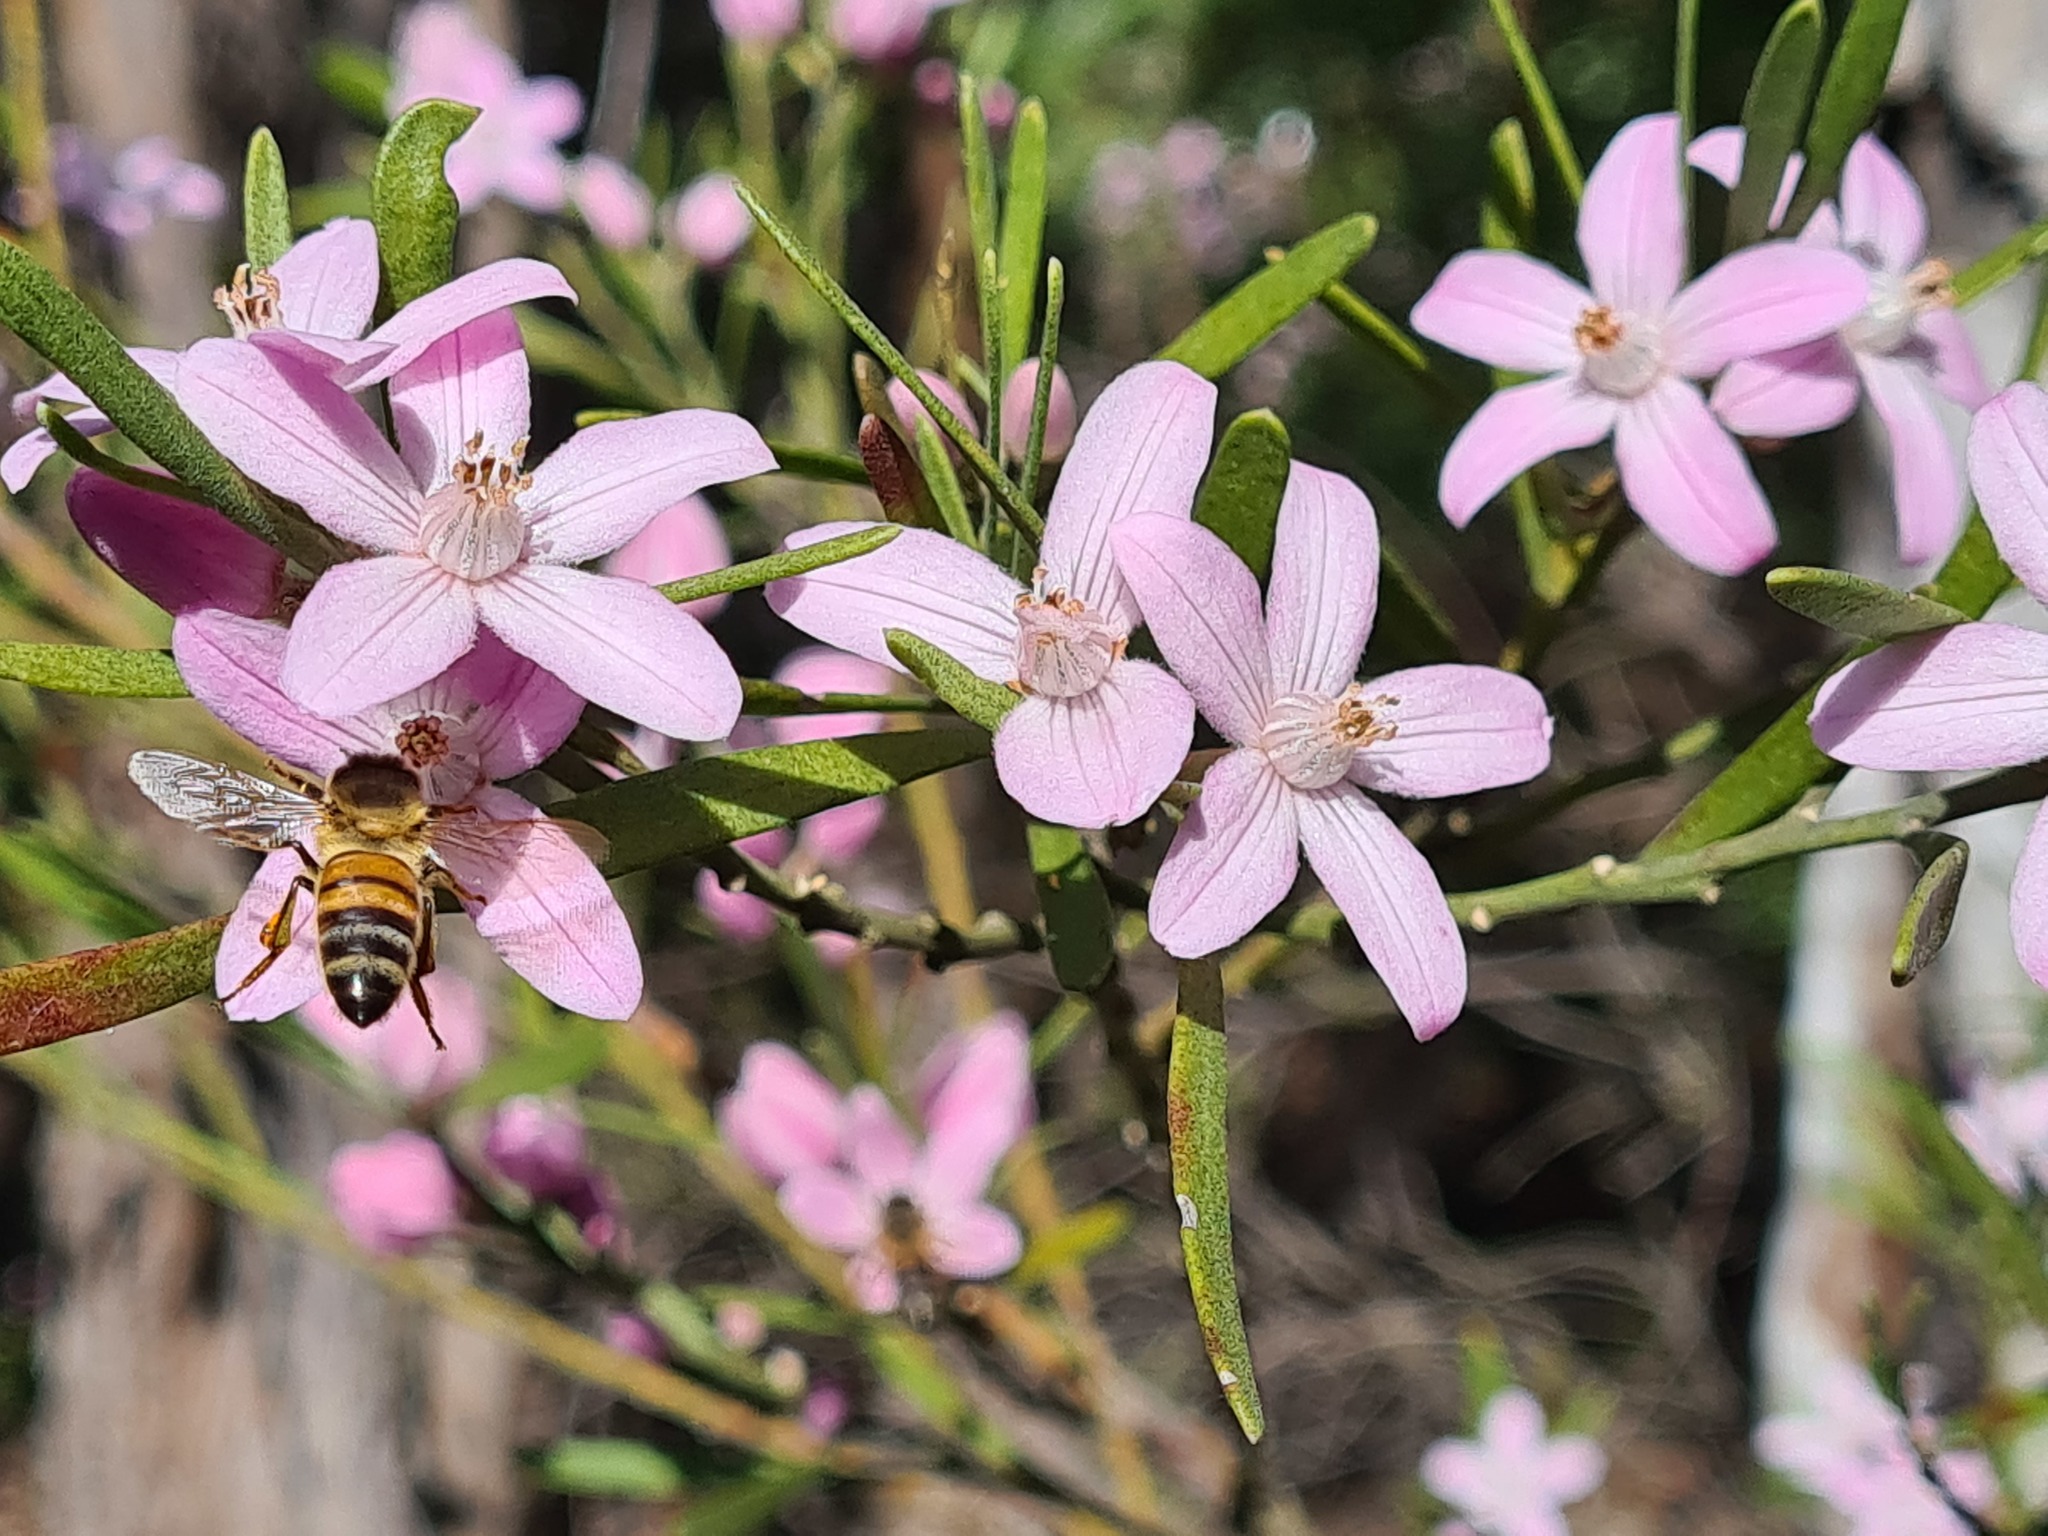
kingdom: Animalia
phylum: Arthropoda
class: Insecta
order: Hymenoptera
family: Apidae
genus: Apis
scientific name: Apis mellifera
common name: Honey bee
